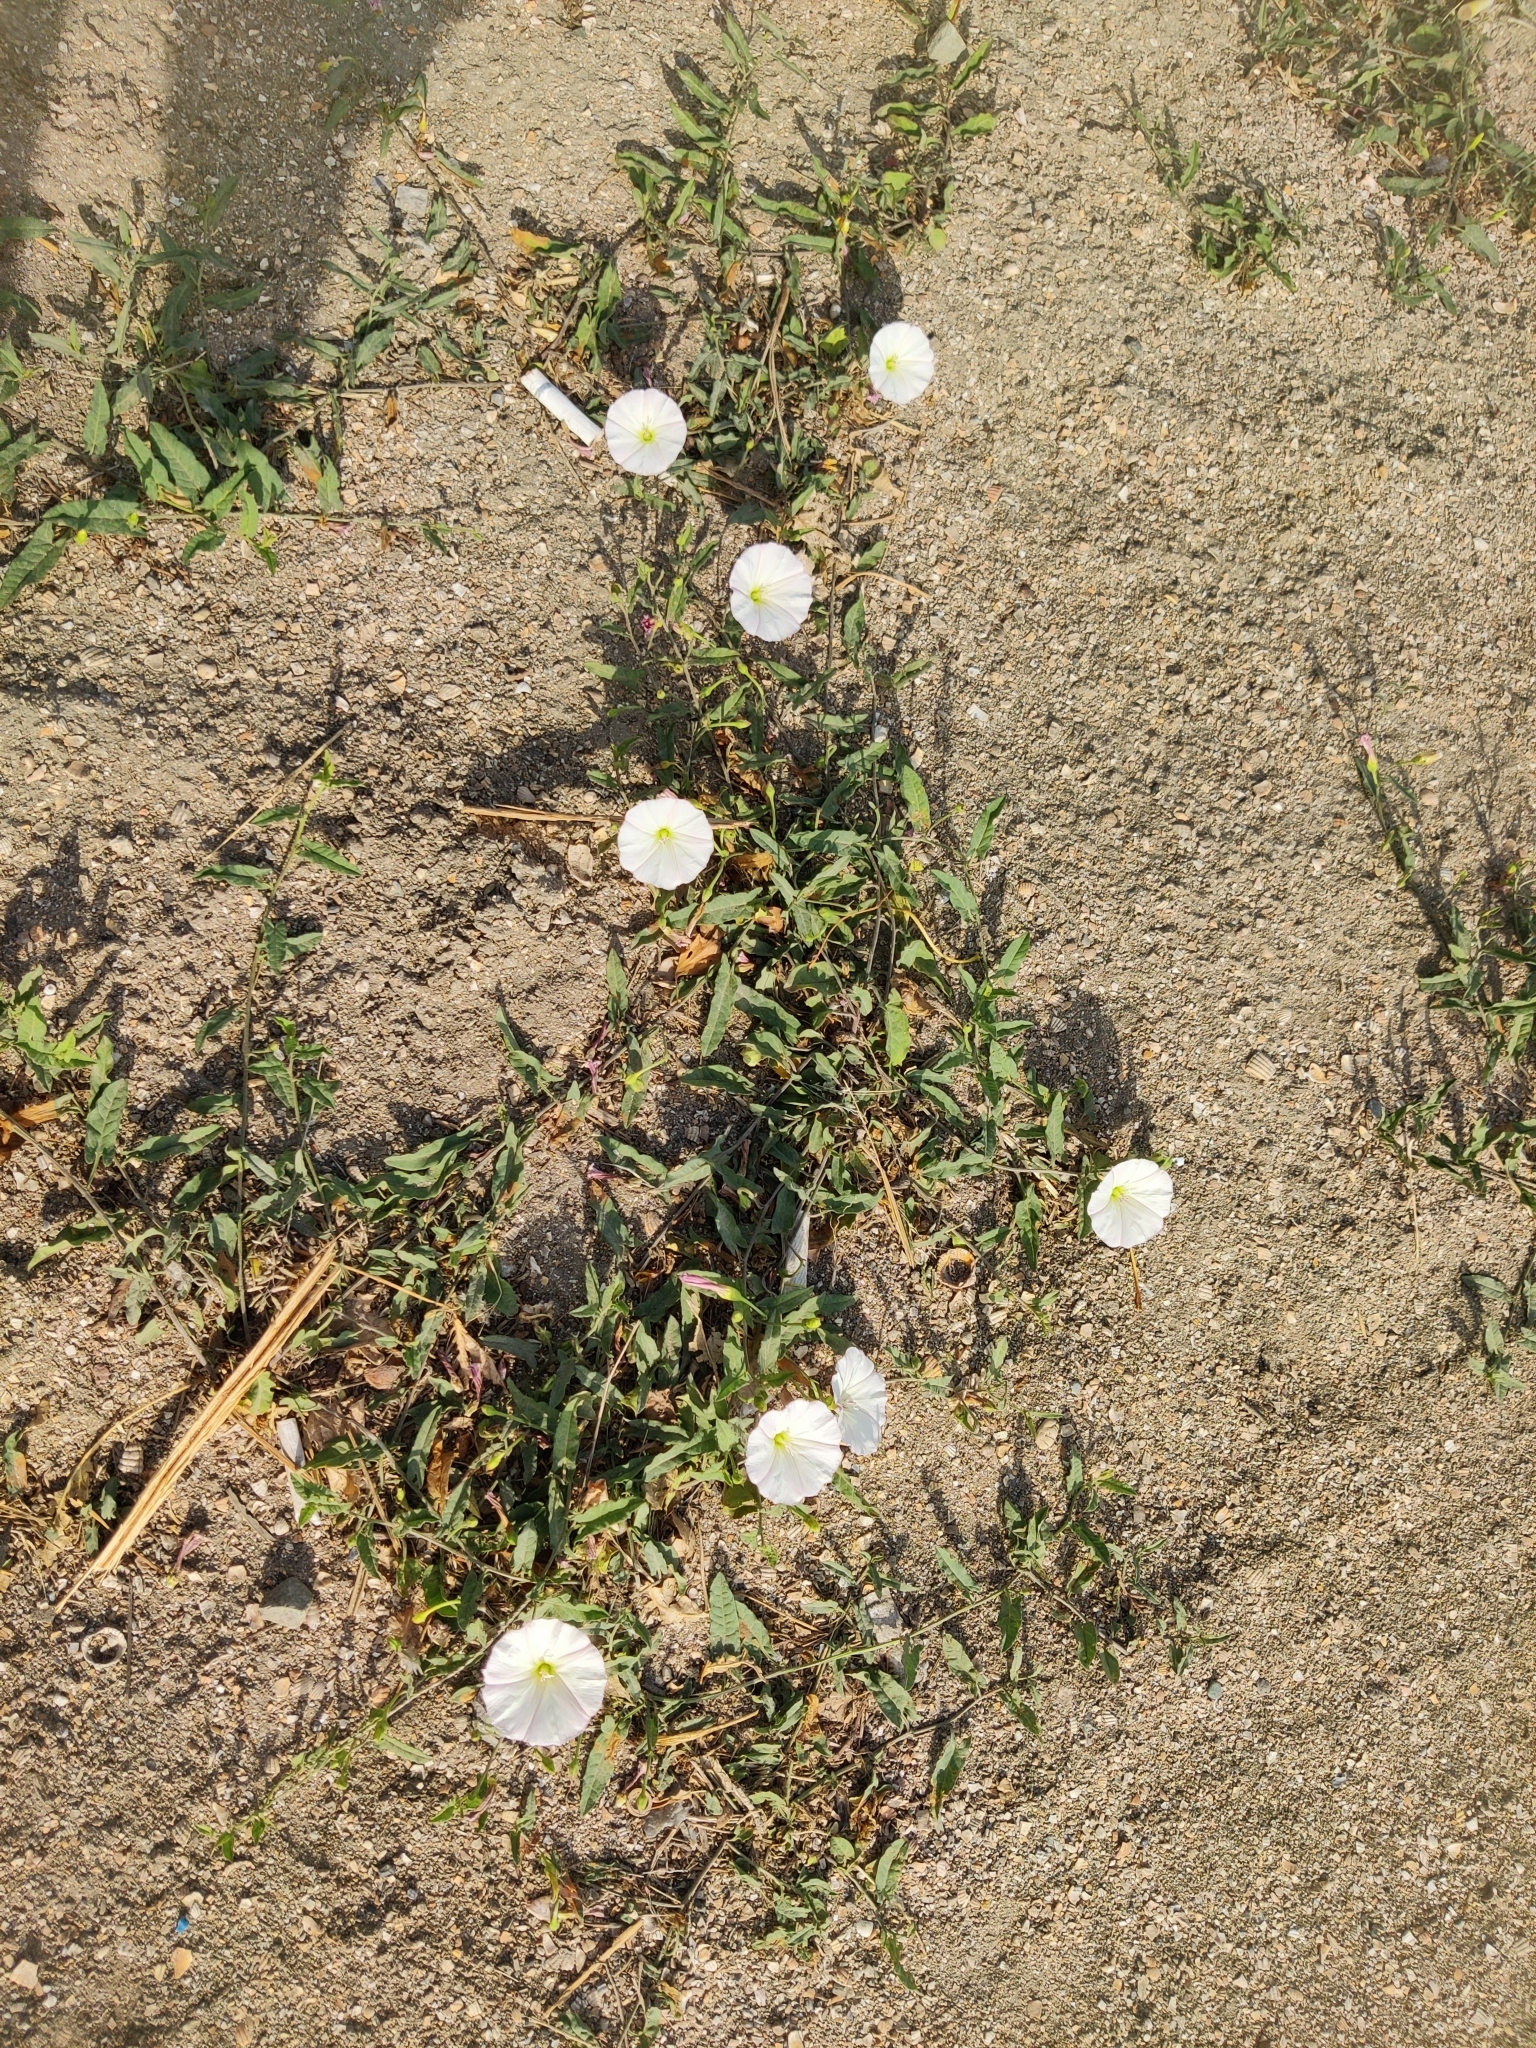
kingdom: Plantae
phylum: Tracheophyta
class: Magnoliopsida
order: Solanales
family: Convolvulaceae
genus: Convolvulus
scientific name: Convolvulus arvensis
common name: Field bindweed
